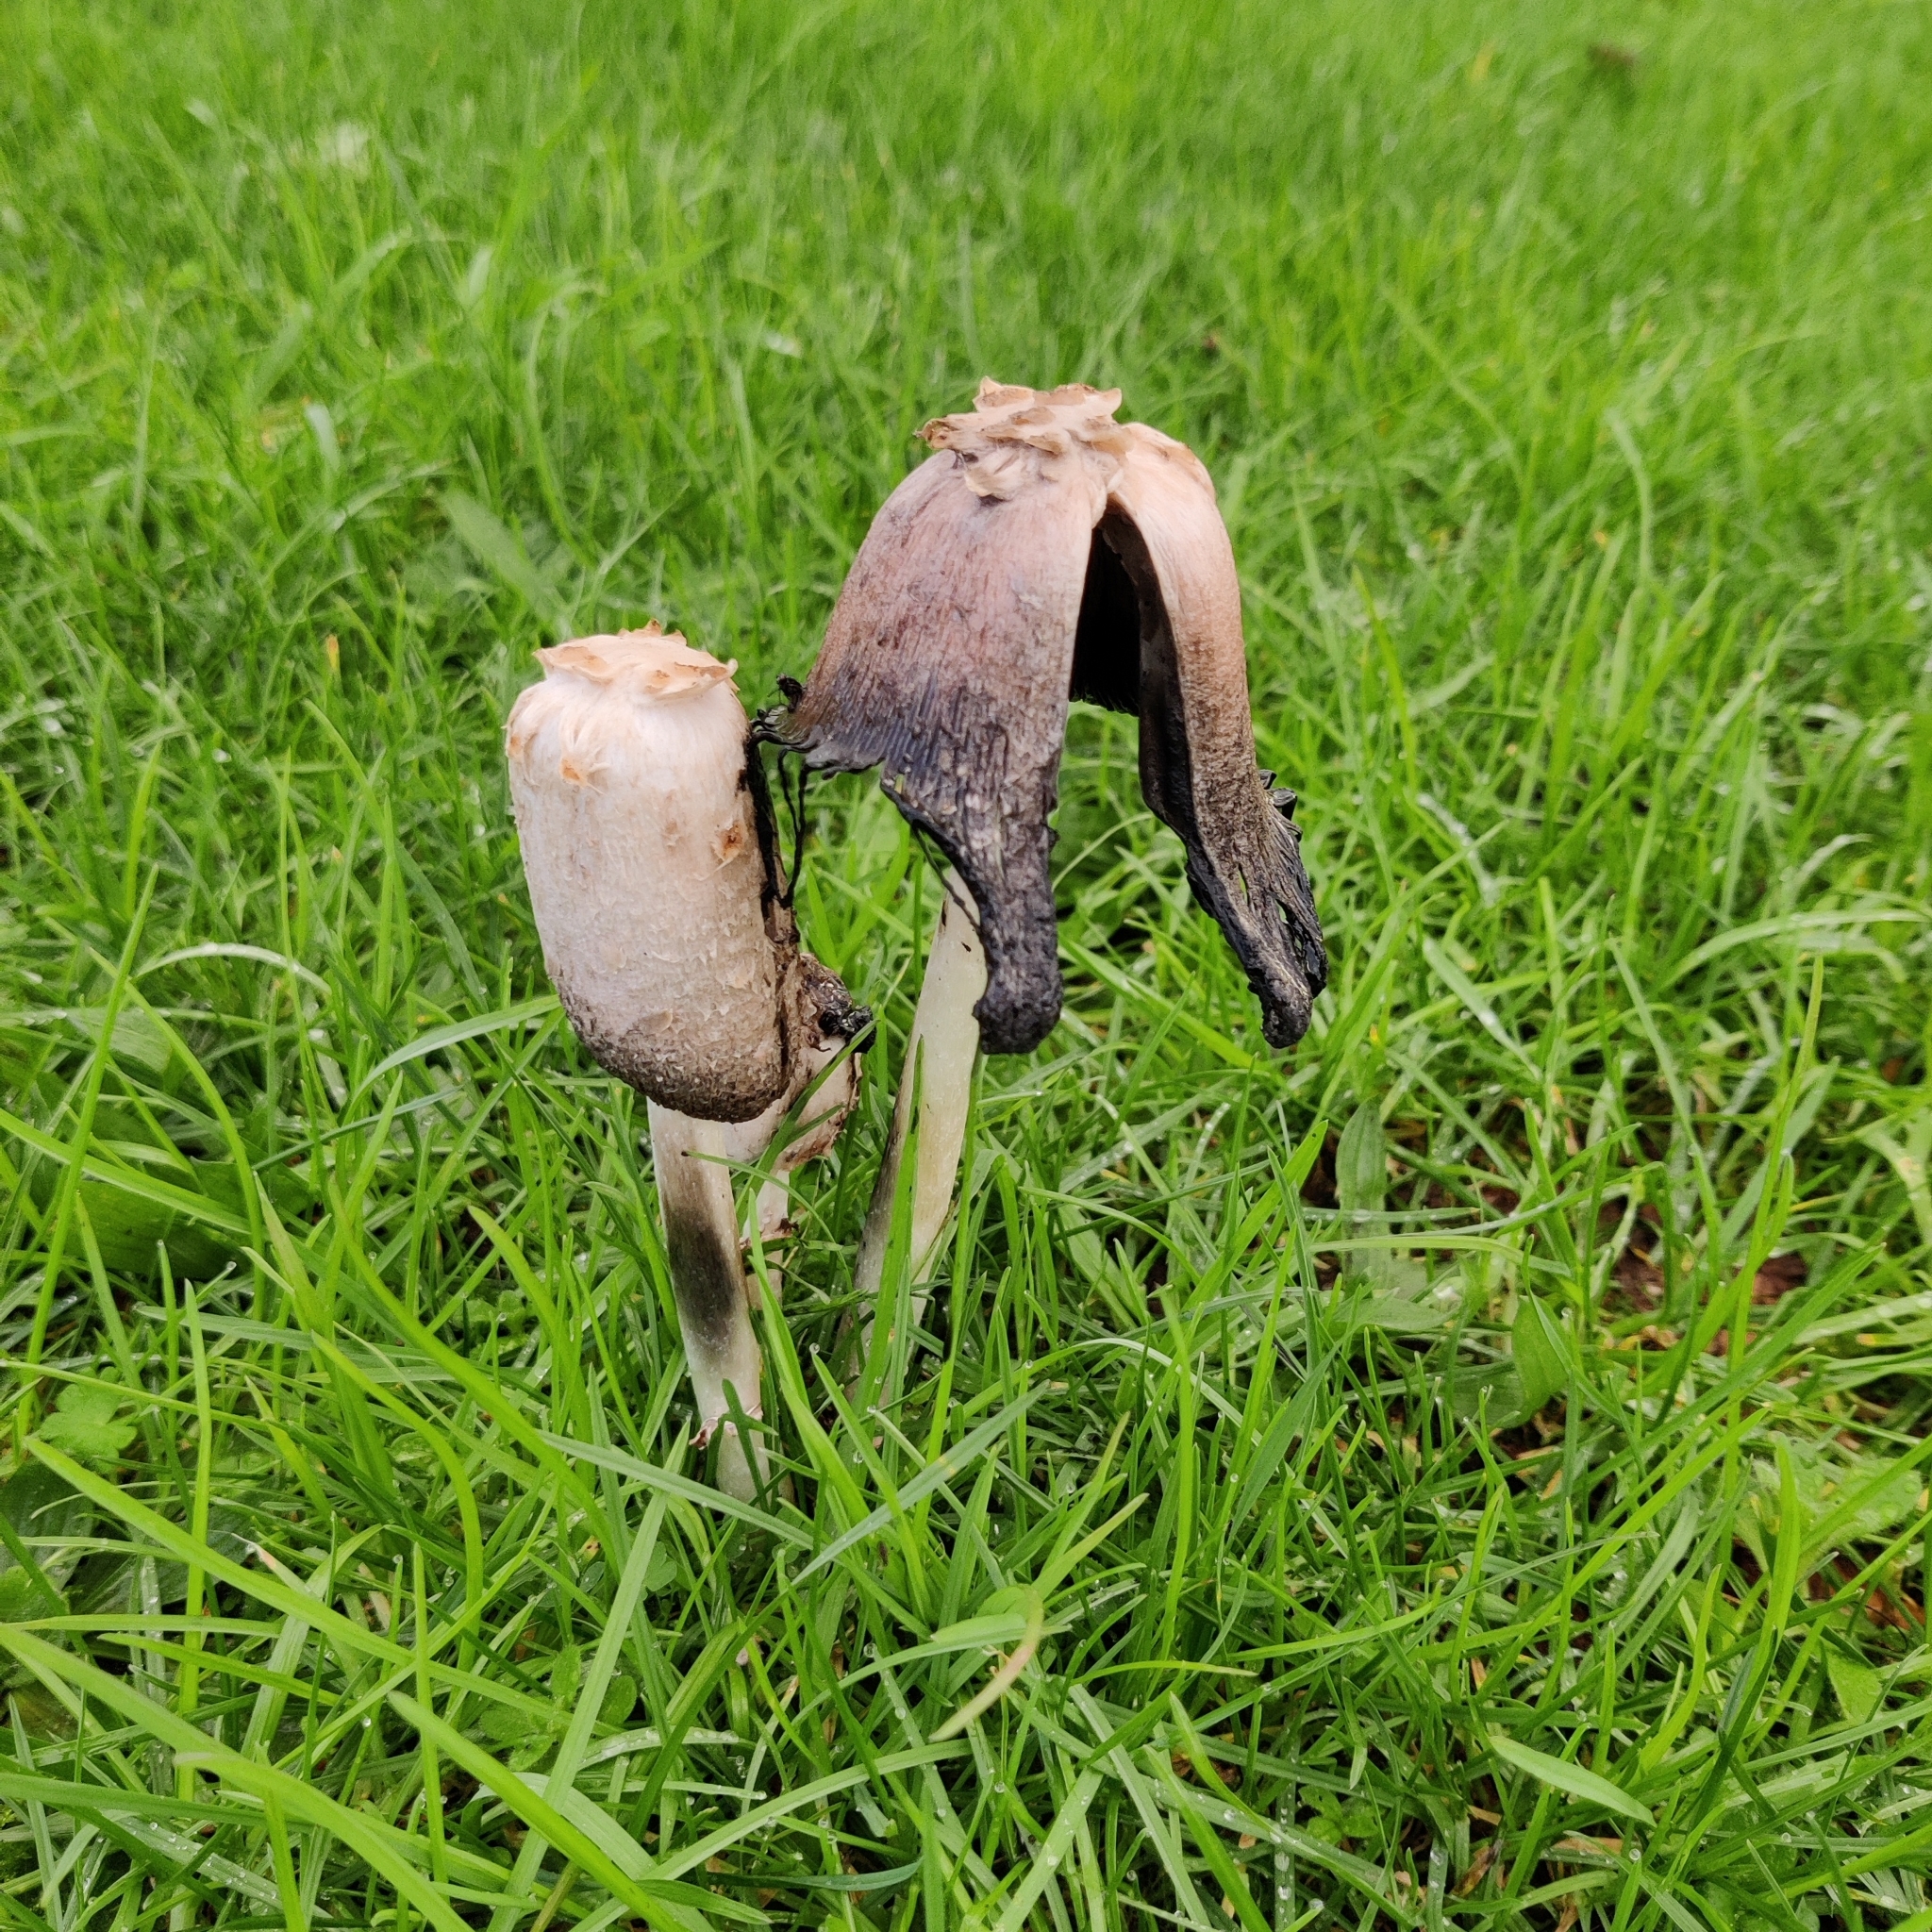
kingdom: Fungi
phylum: Basidiomycota
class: Agaricomycetes
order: Agaricales
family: Agaricaceae
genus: Coprinus
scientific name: Coprinus comatus
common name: Lawyer's wig
